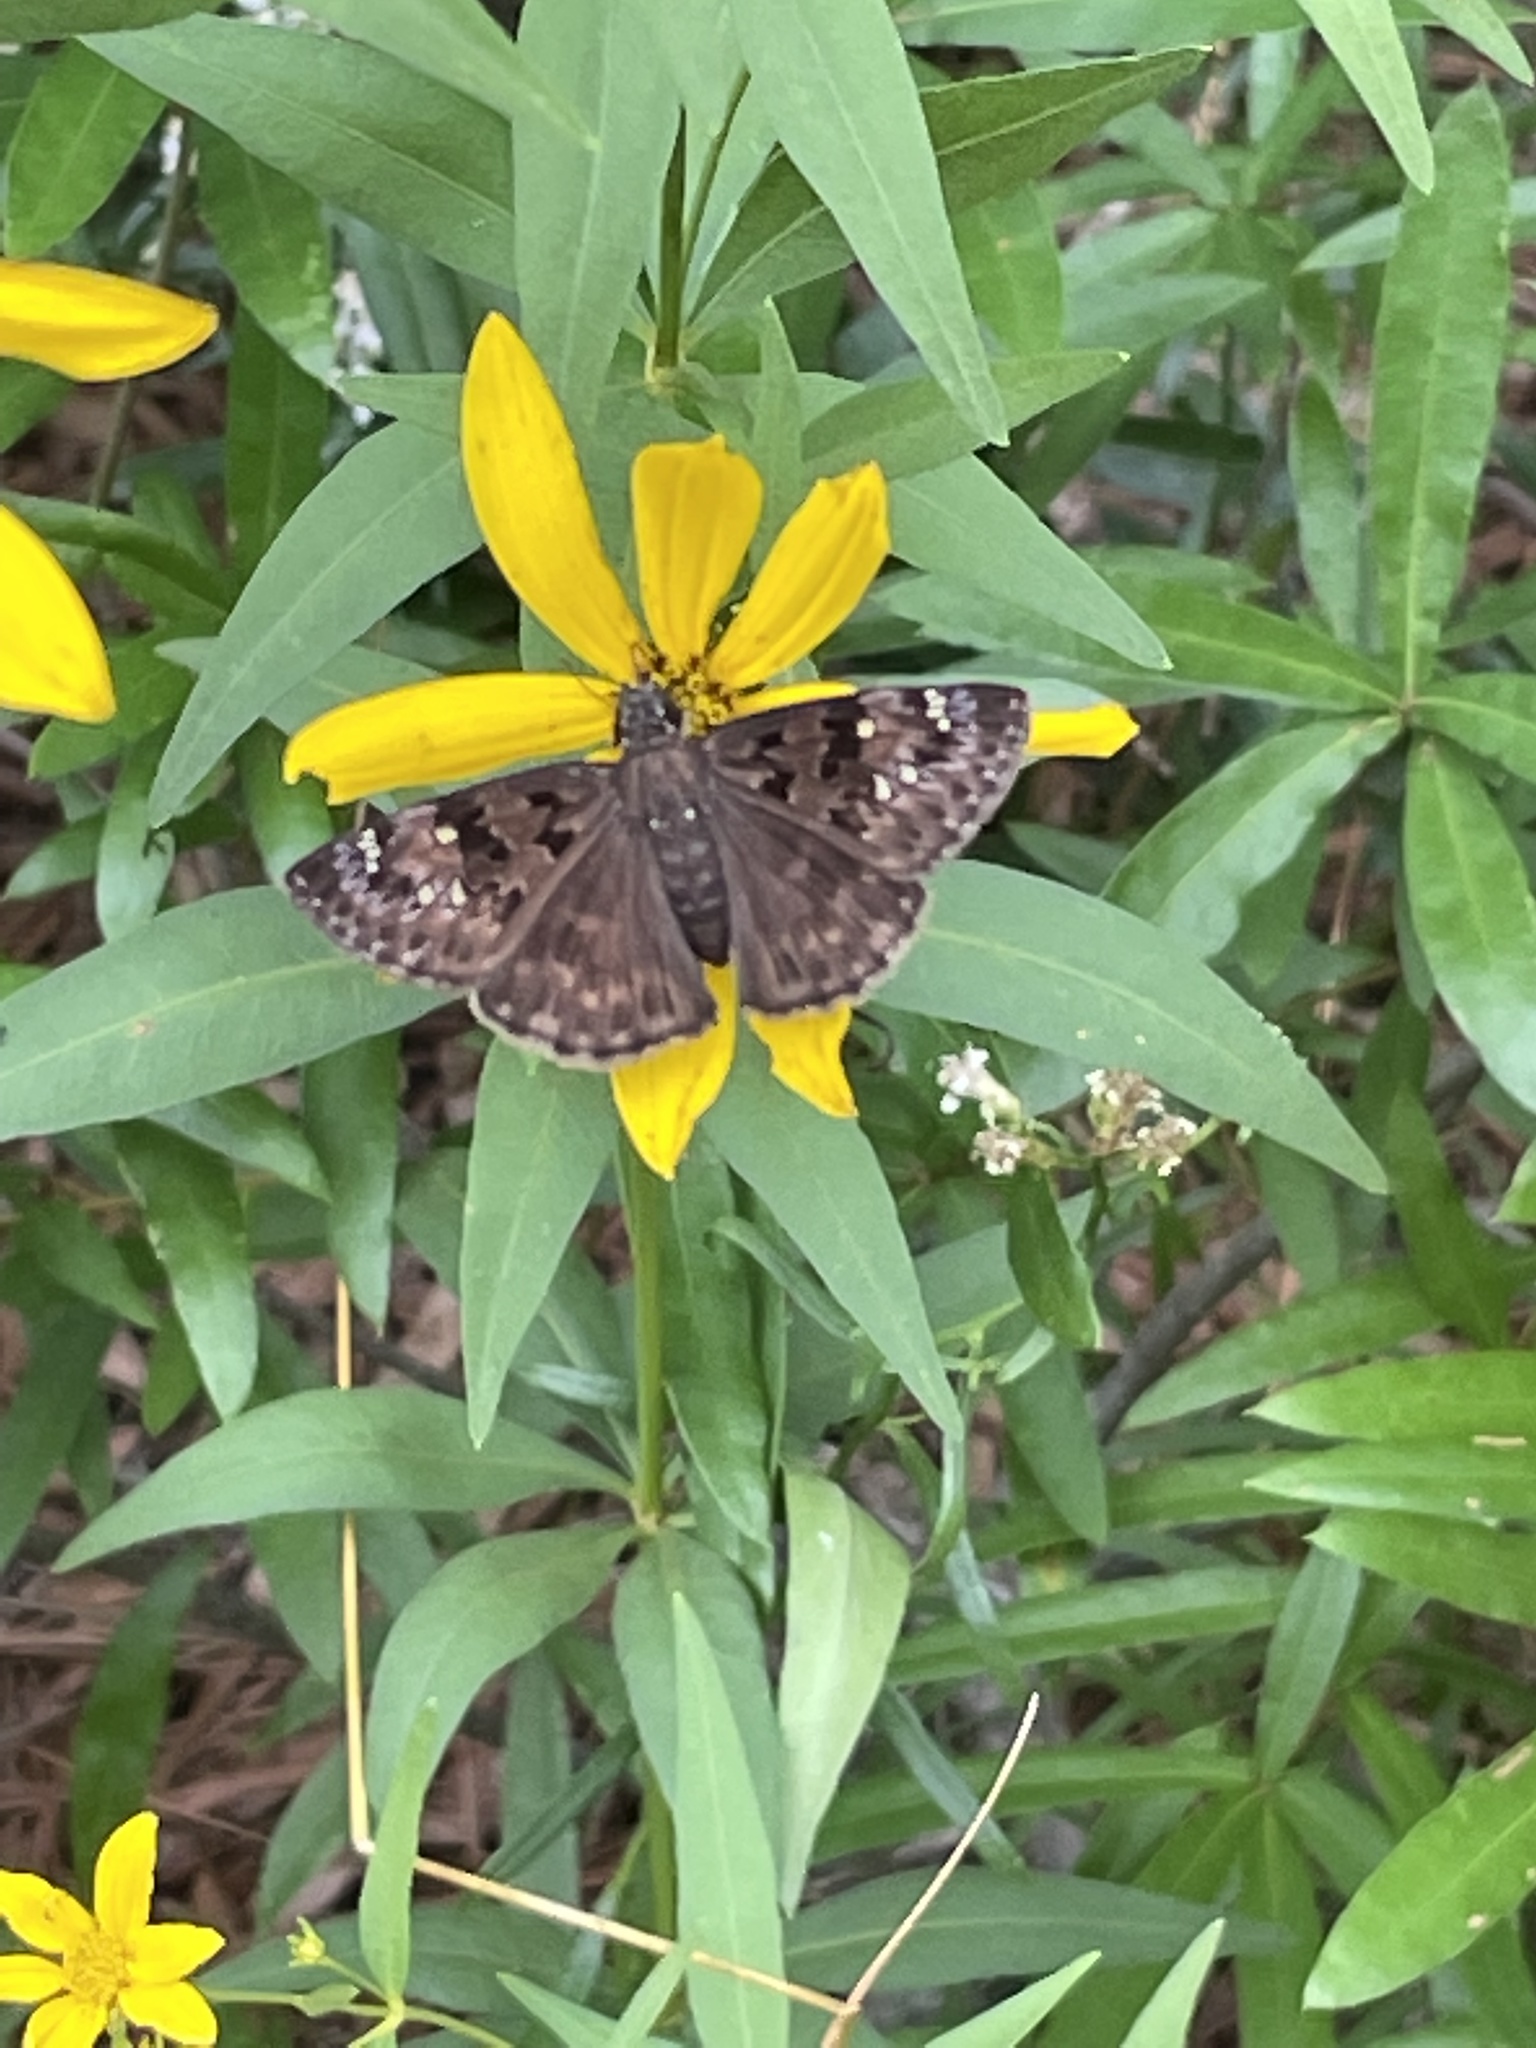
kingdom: Animalia
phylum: Arthropoda
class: Insecta
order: Lepidoptera
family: Hesperiidae
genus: Erynnis
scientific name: Erynnis horatius
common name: Horace's duskywing
